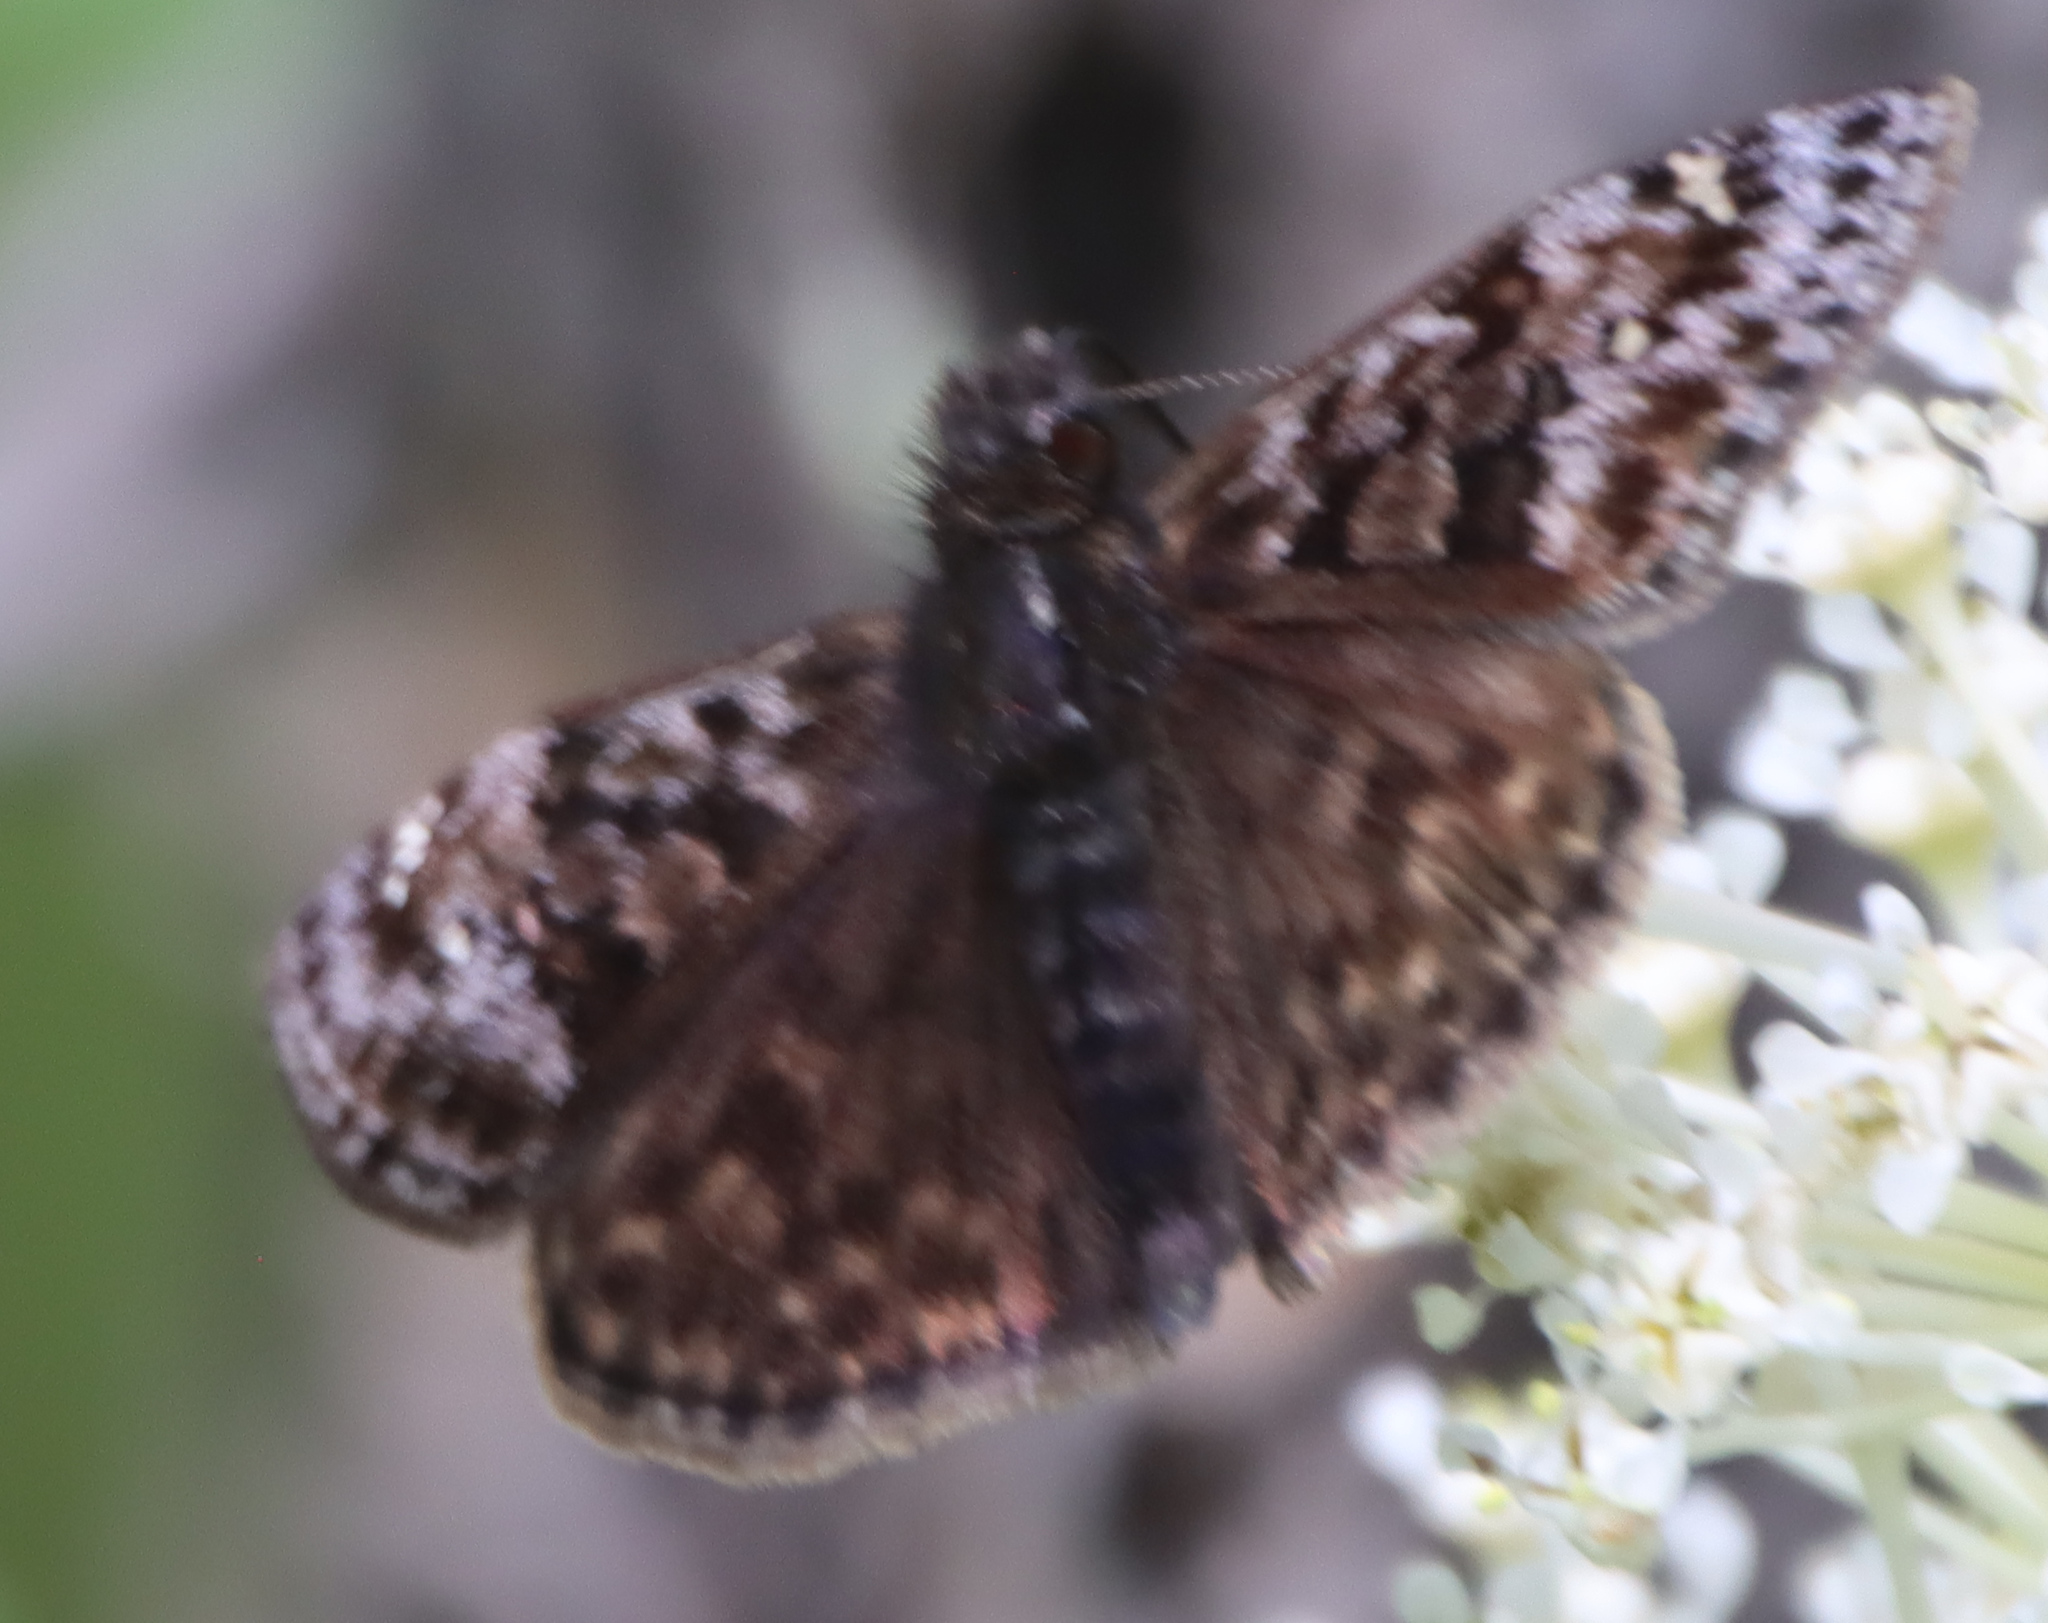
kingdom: Animalia
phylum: Arthropoda
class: Insecta
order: Lepidoptera
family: Hesperiidae
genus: Erynnis
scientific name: Erynnis martialis
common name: Mottled duskywing
